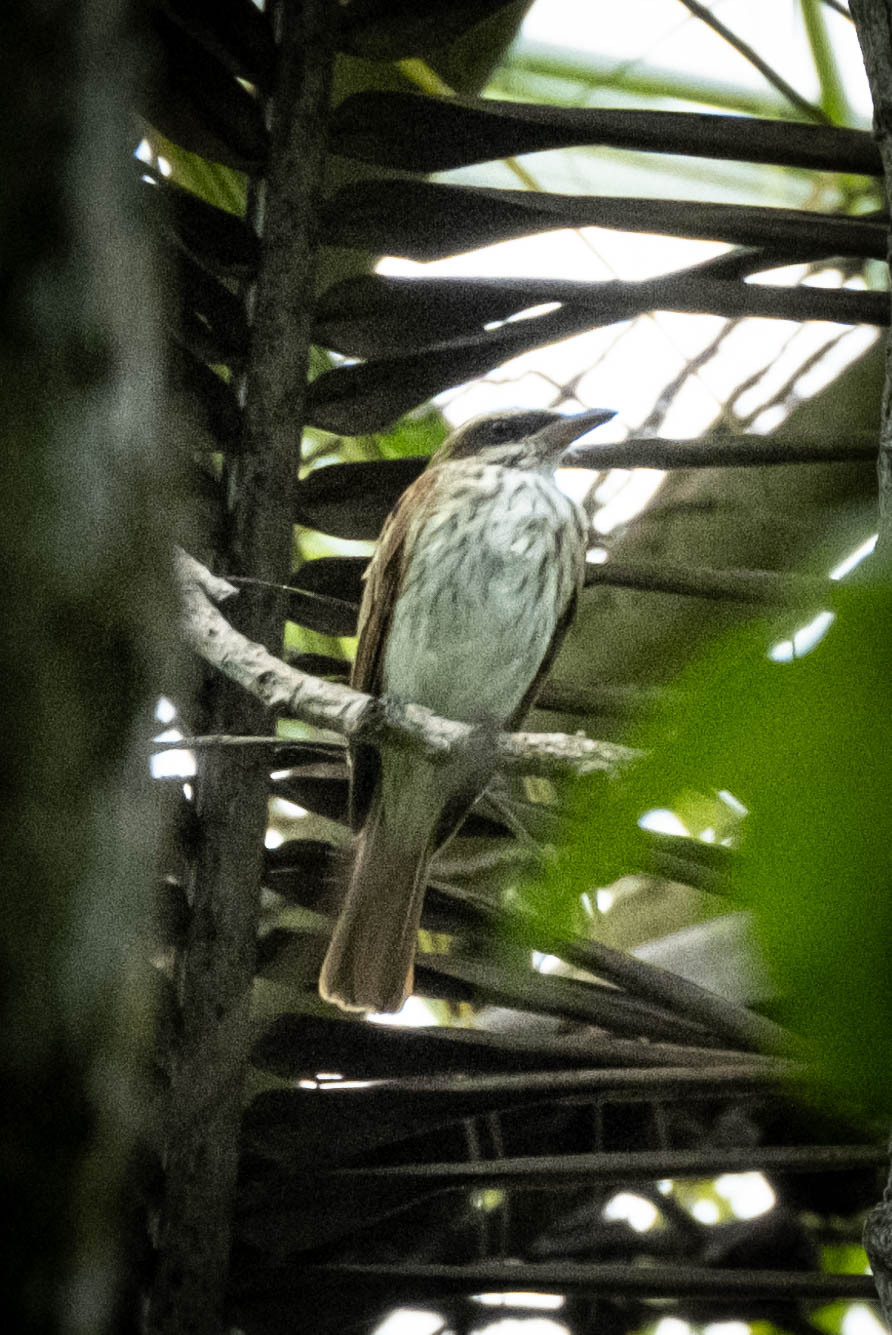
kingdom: Animalia
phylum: Chordata
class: Aves
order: Passeriformes
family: Tyrannidae
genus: Myiodynastes
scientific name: Myiodynastes maculatus
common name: Streaked flycatcher
